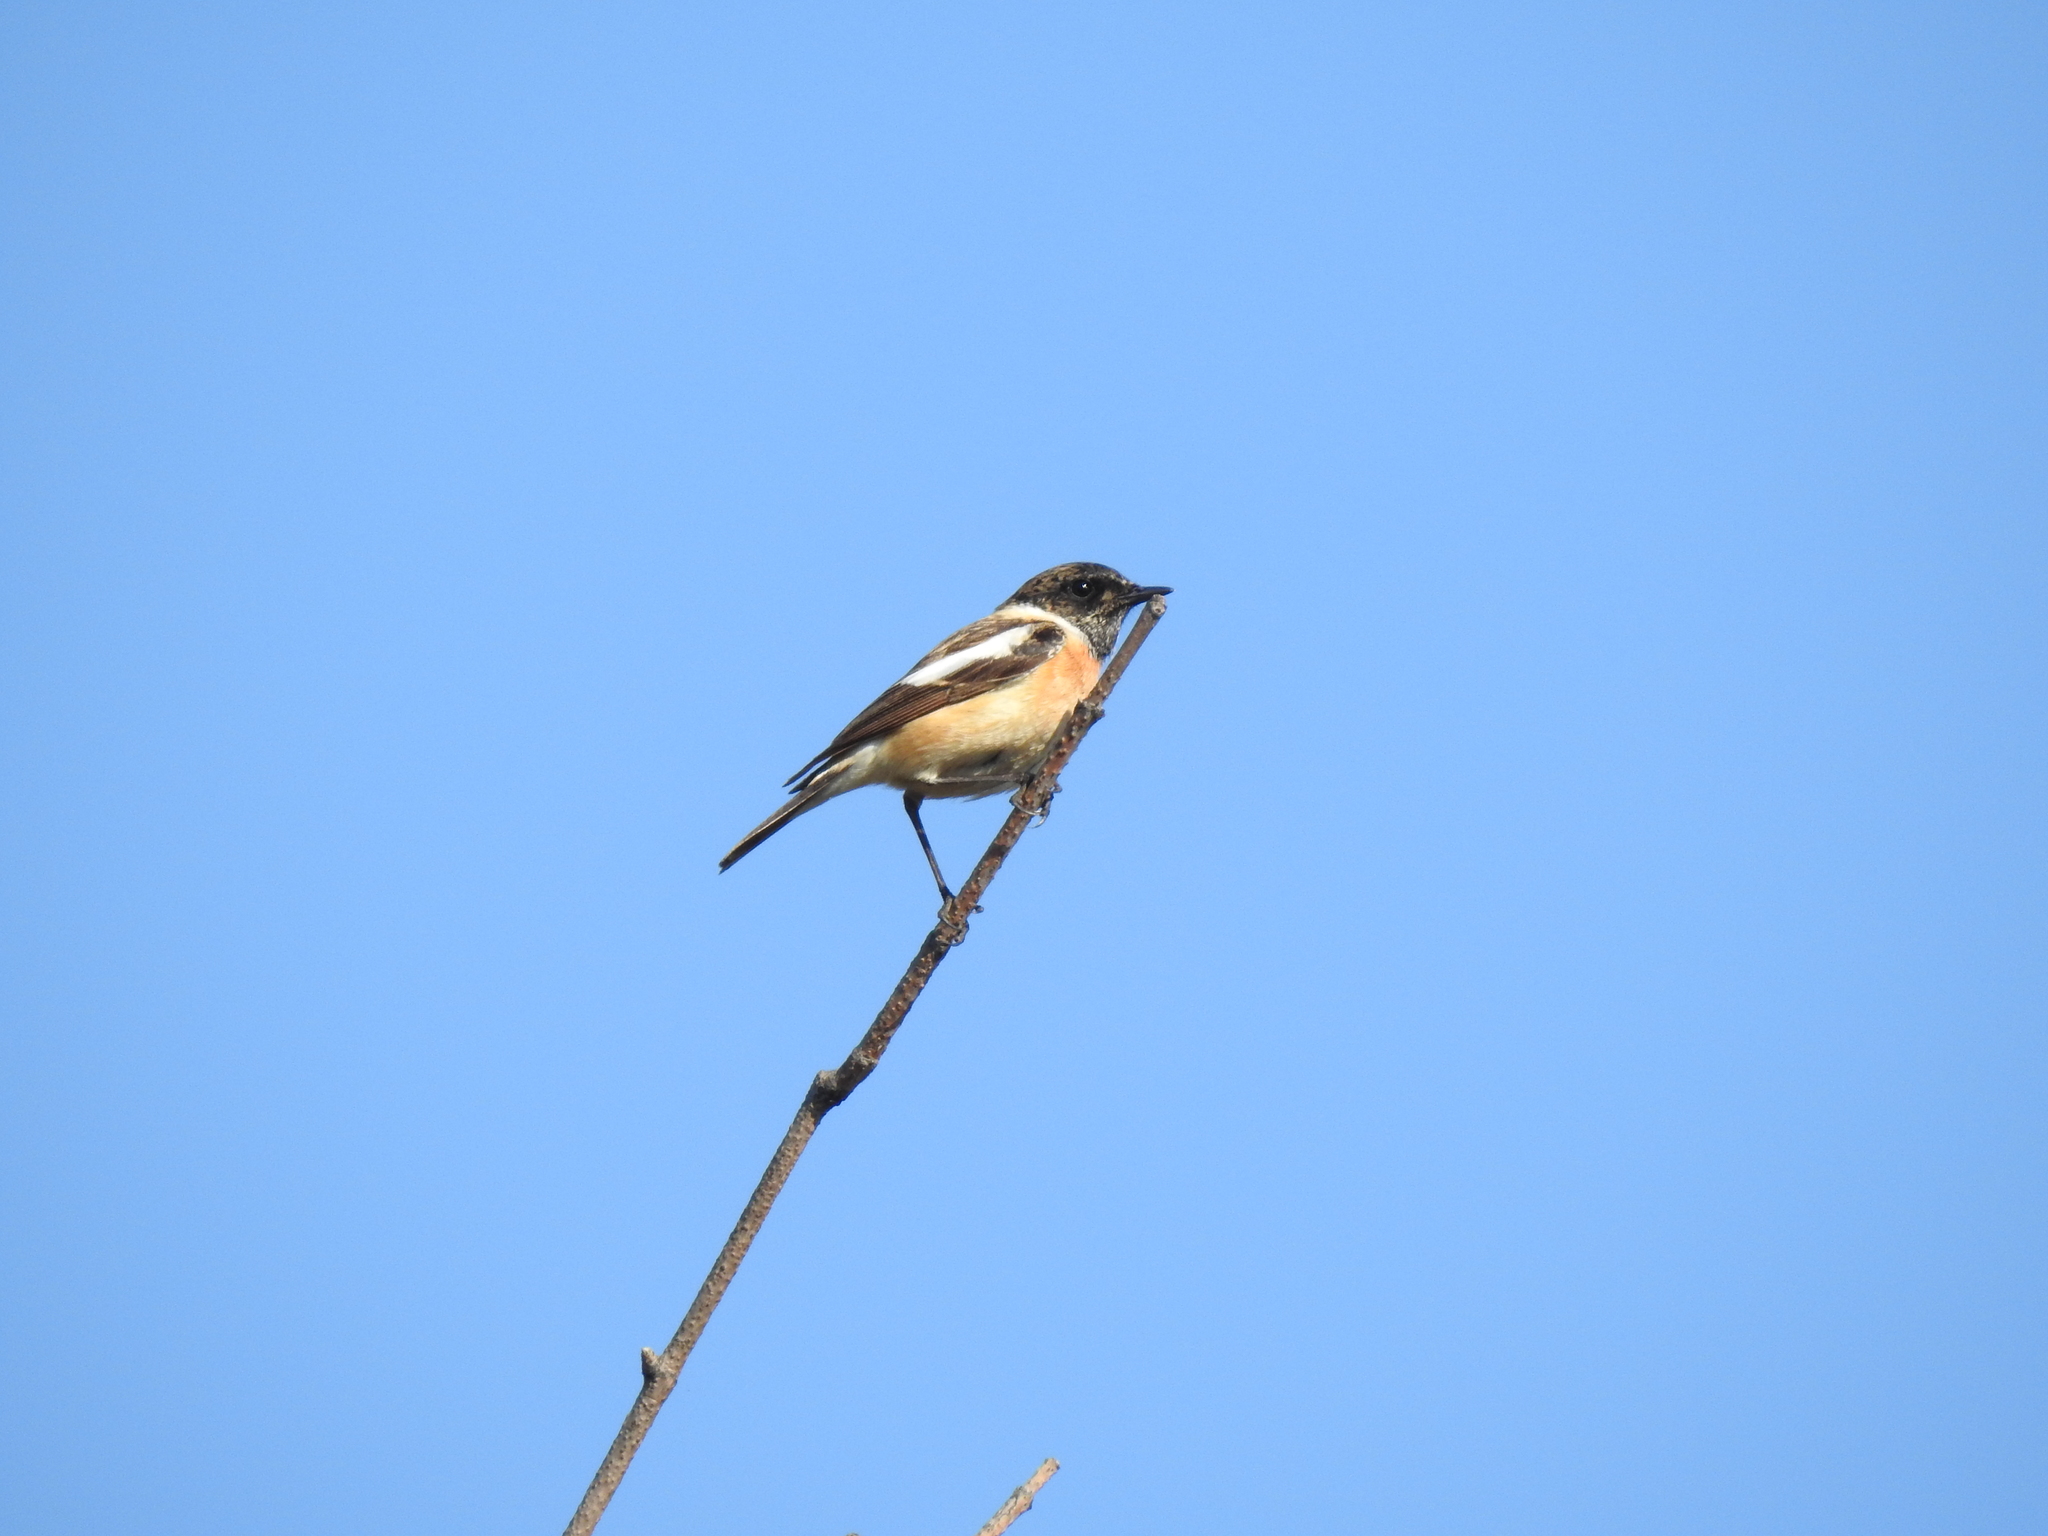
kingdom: Animalia
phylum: Chordata
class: Aves
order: Passeriformes
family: Muscicapidae
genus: Saxicola
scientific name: Saxicola maurus
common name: Siberian stonechat
